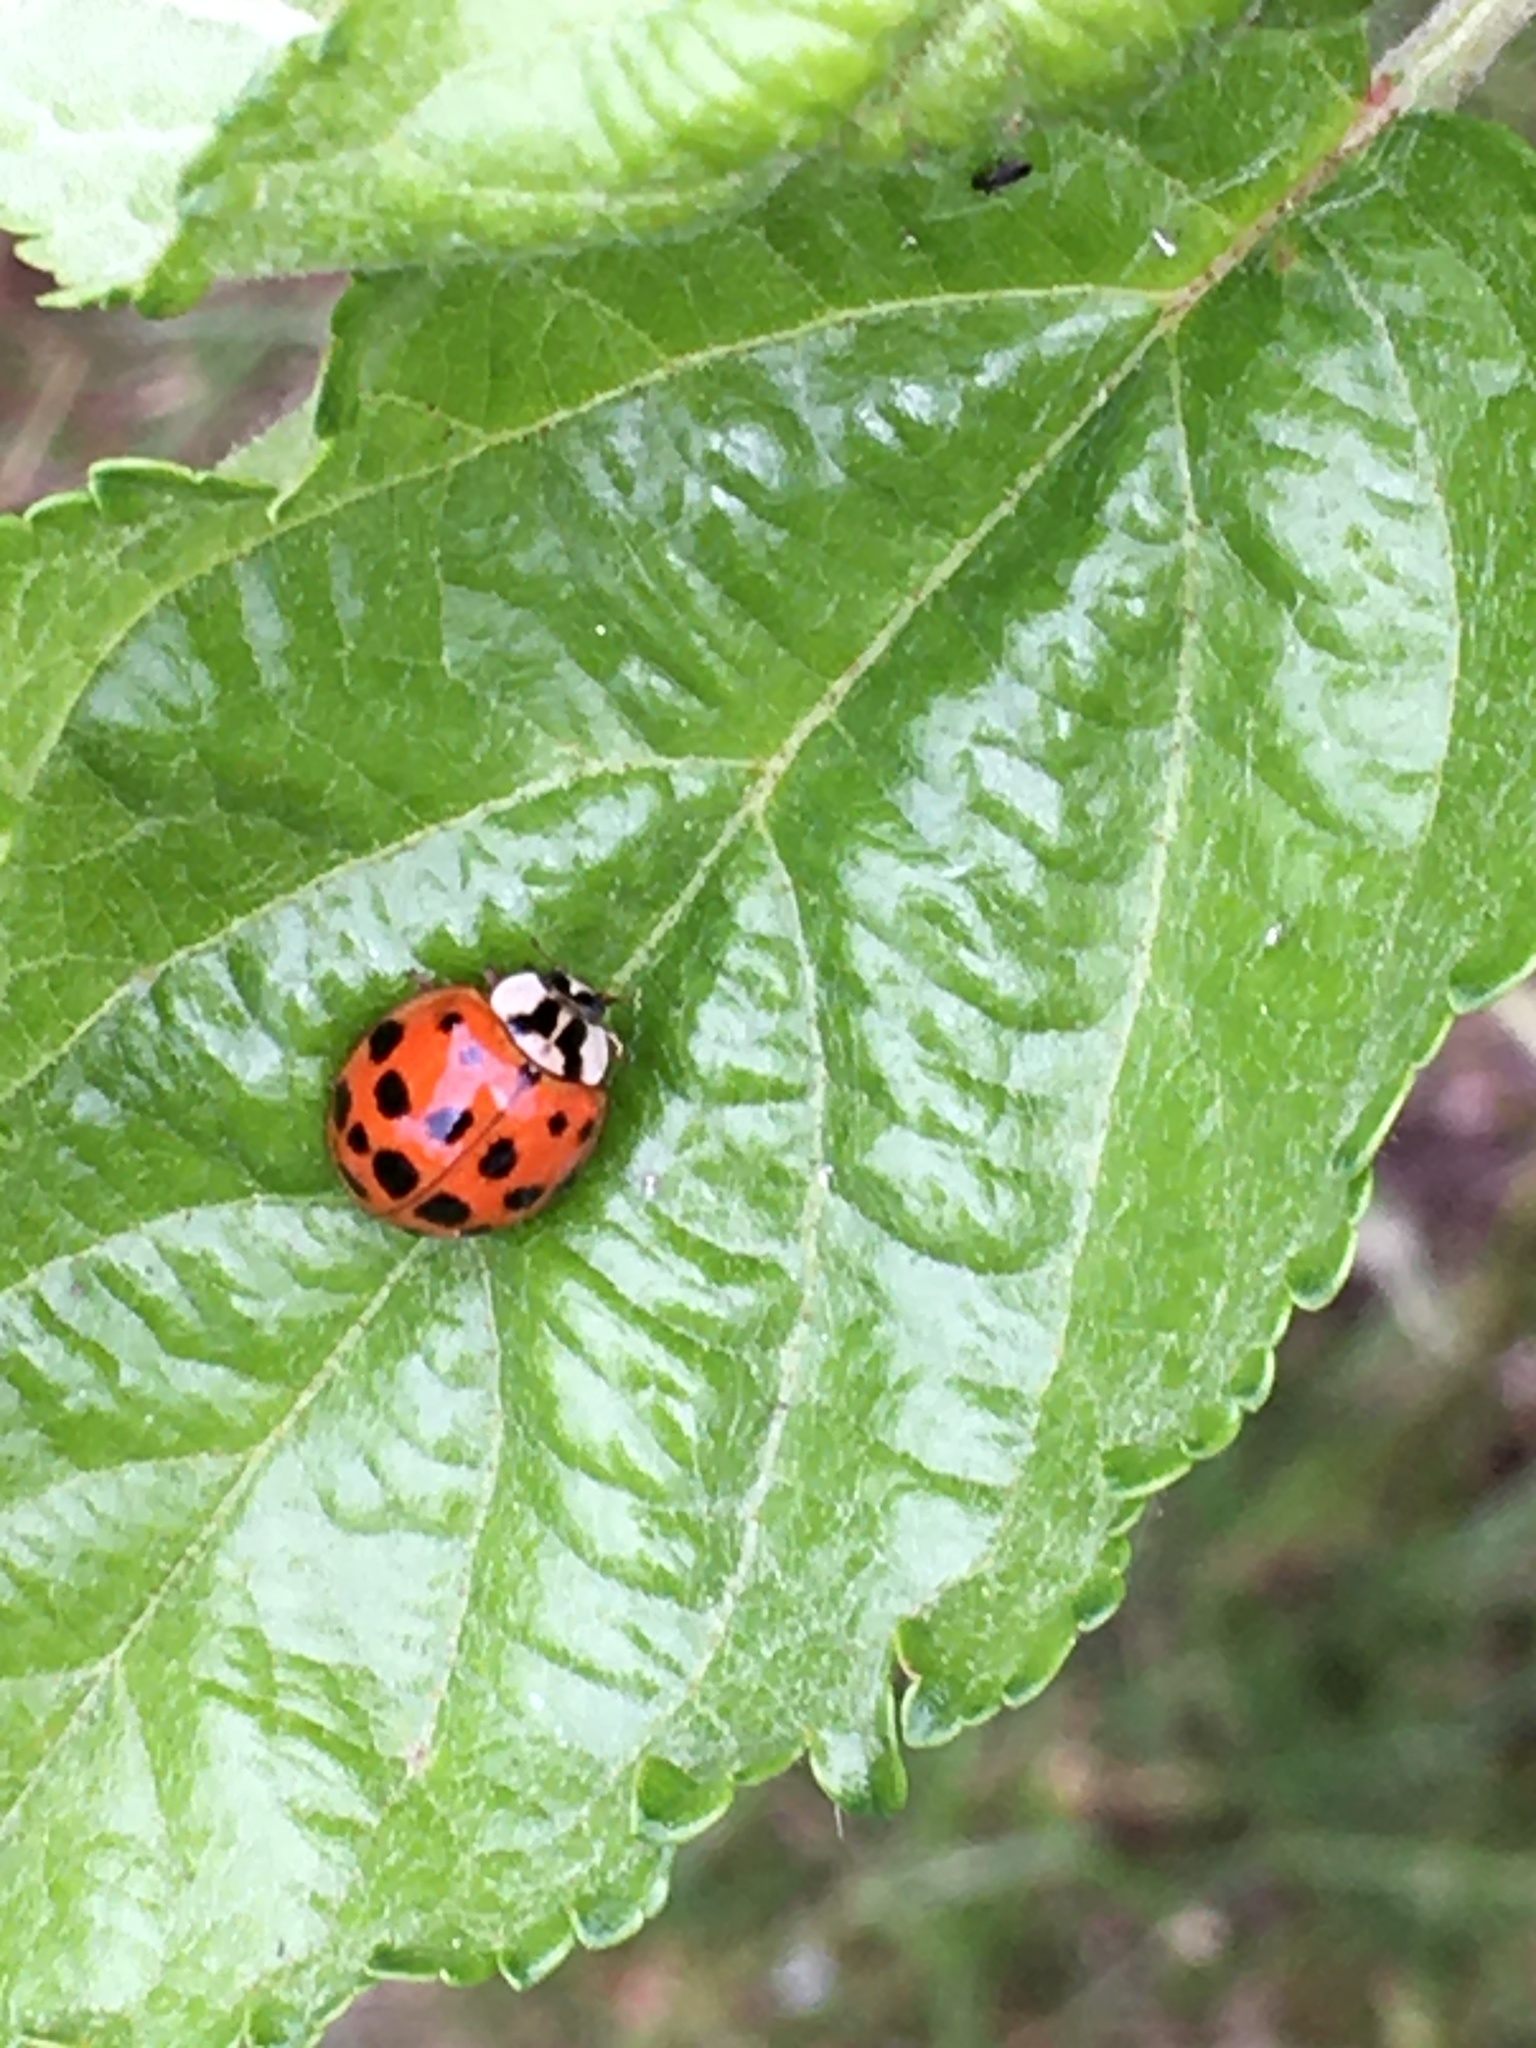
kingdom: Animalia
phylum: Arthropoda
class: Insecta
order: Coleoptera
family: Coccinellidae
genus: Harmonia
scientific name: Harmonia axyridis
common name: Harlequin ladybird
